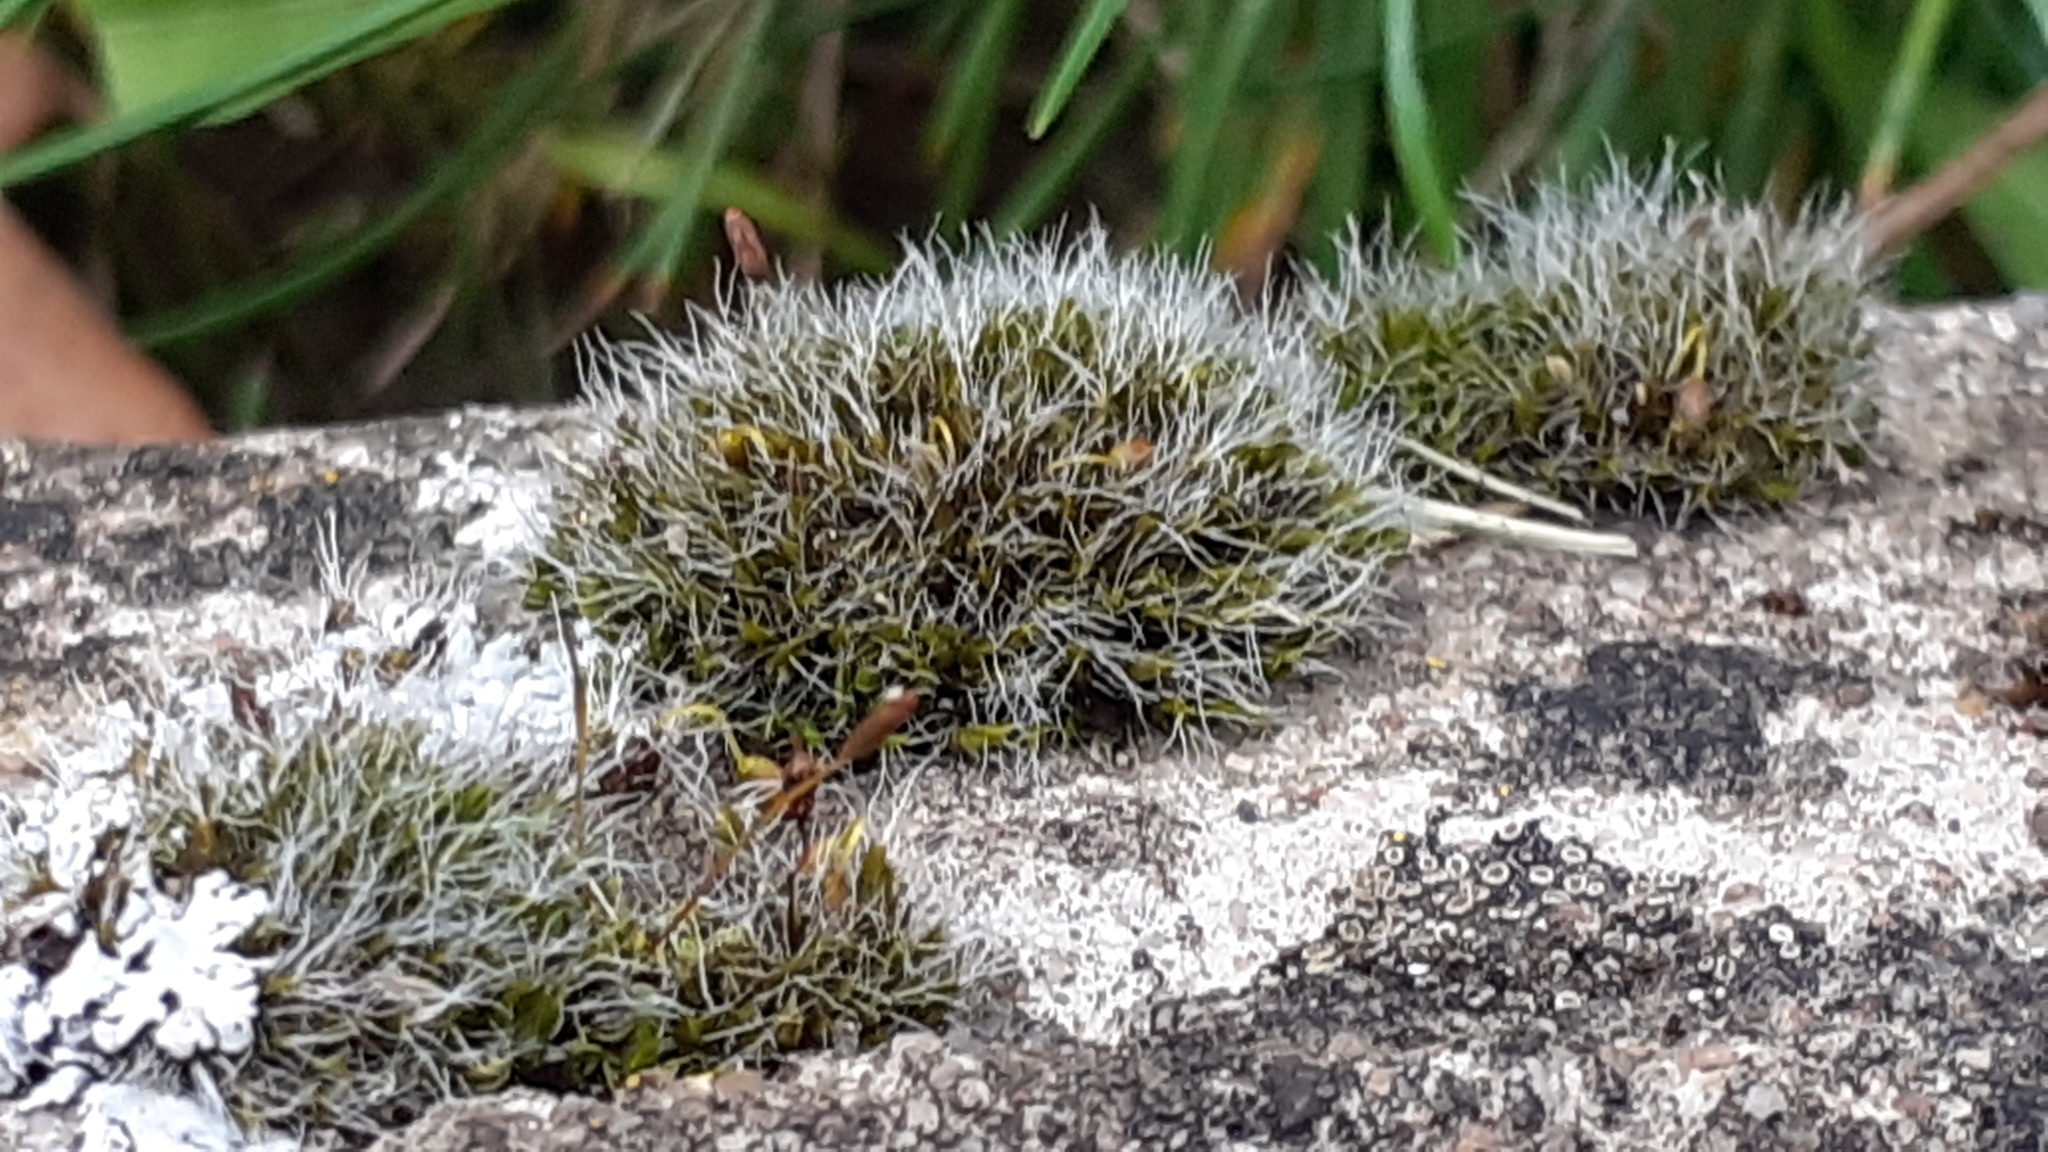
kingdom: Plantae
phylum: Bryophyta
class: Bryopsida
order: Grimmiales
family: Grimmiaceae
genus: Grimmia
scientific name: Grimmia pulvinata
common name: Grey-cushioned grimmia
